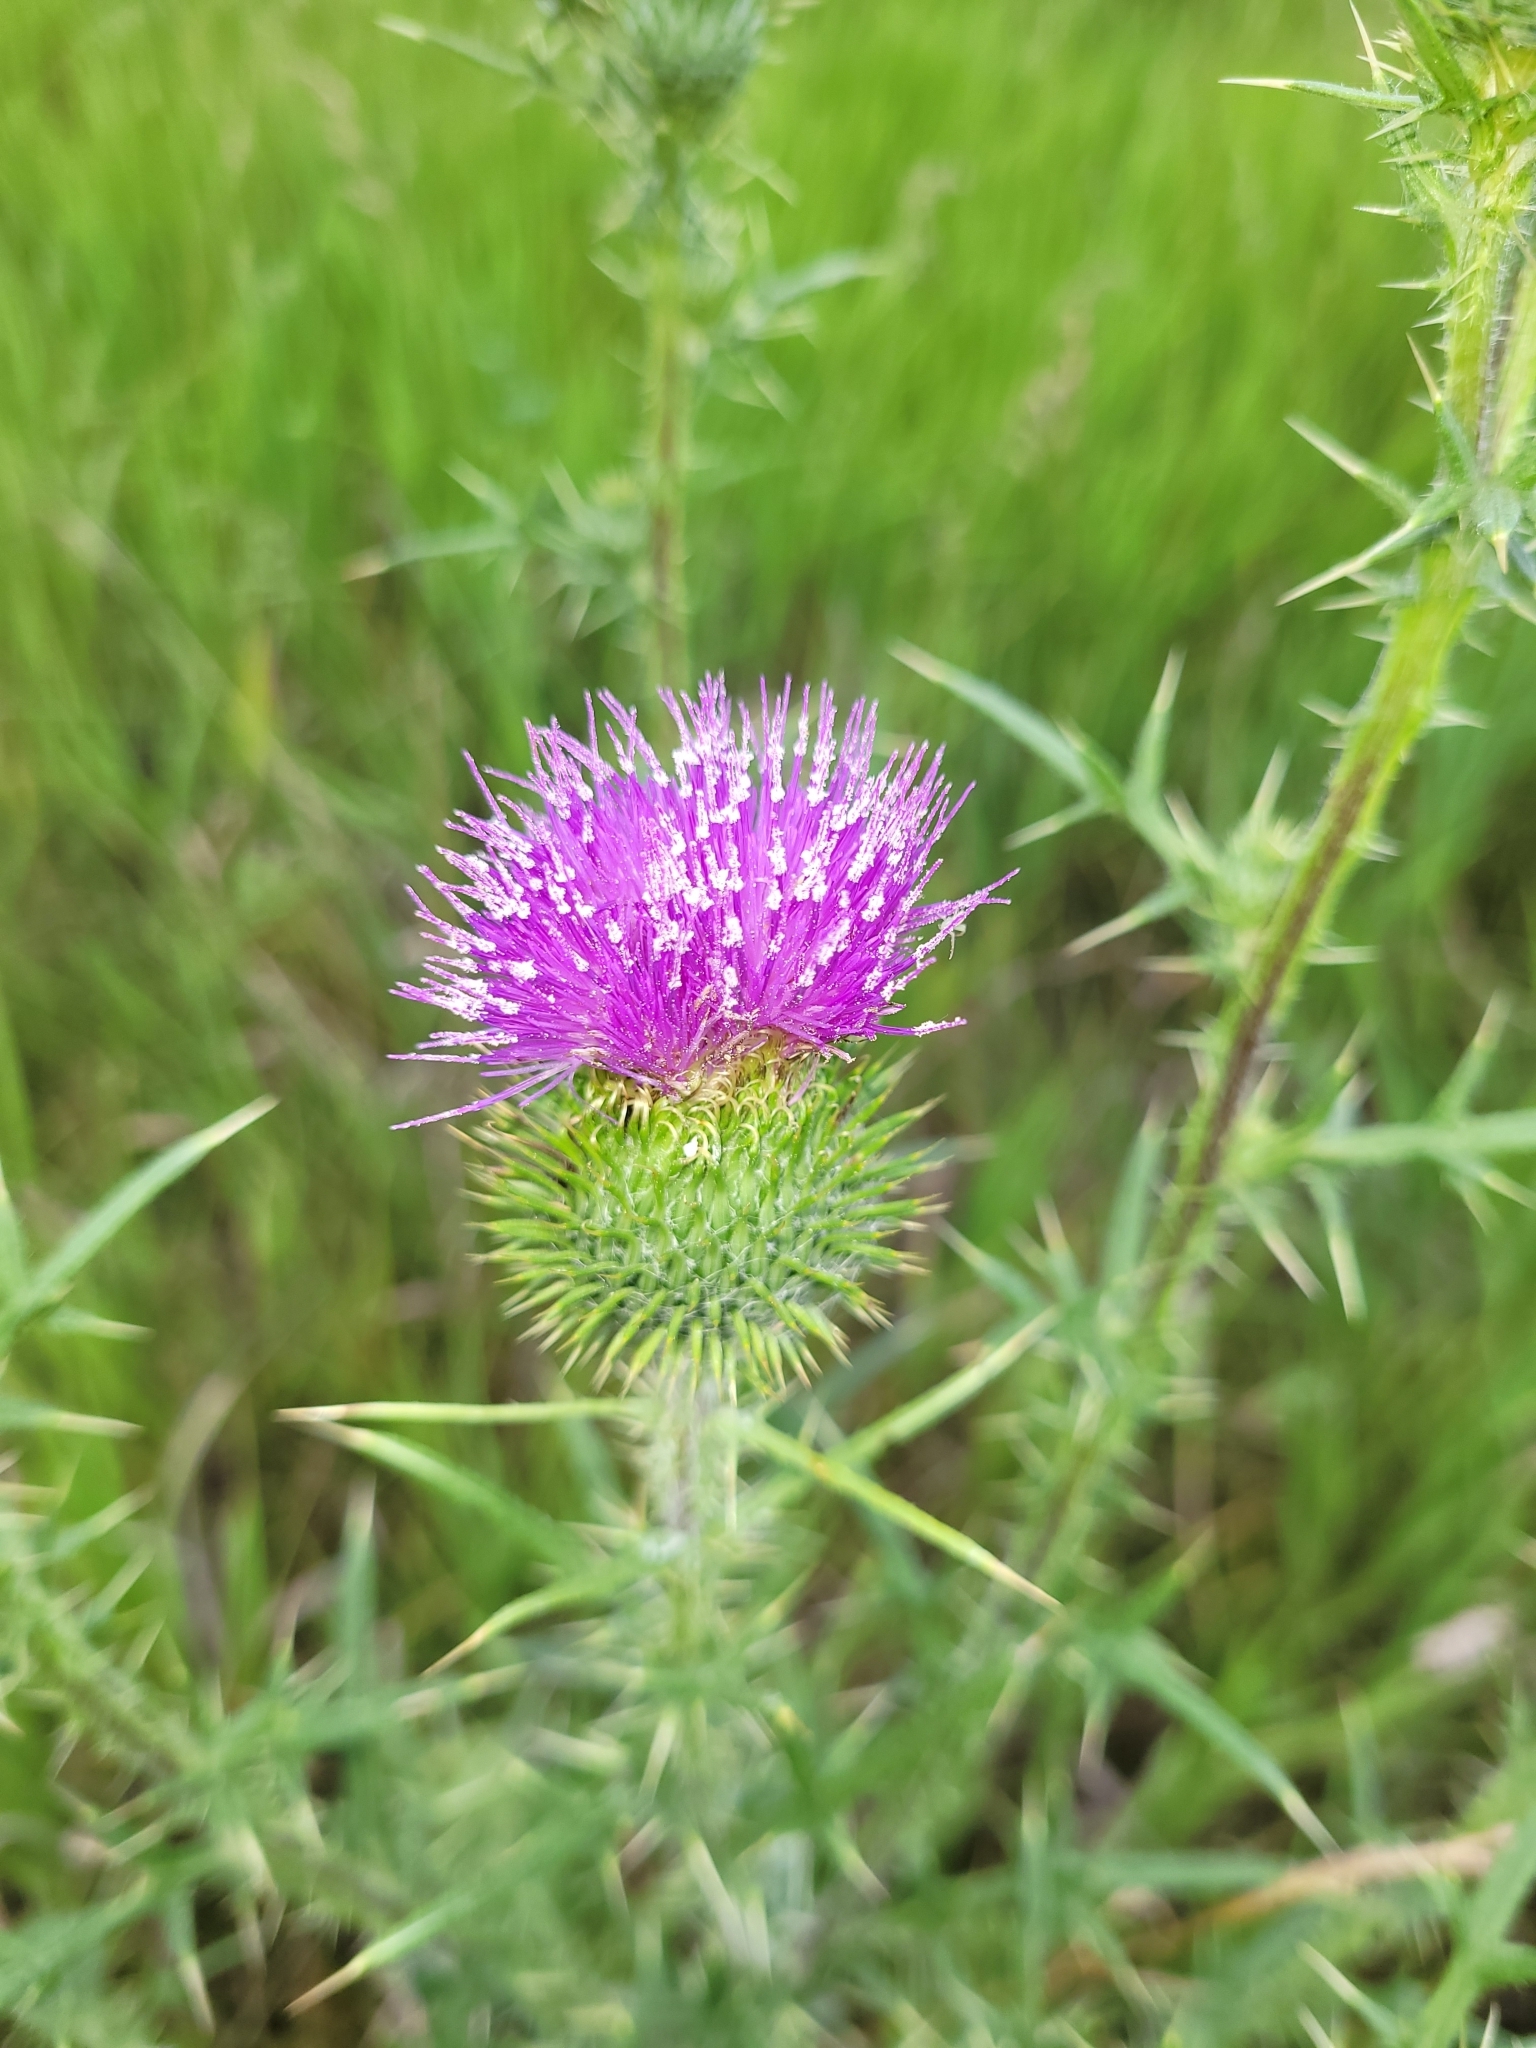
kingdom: Plantae
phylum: Tracheophyta
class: Magnoliopsida
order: Asterales
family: Asteraceae
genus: Cirsium
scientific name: Cirsium vulgare
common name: Bull thistle
